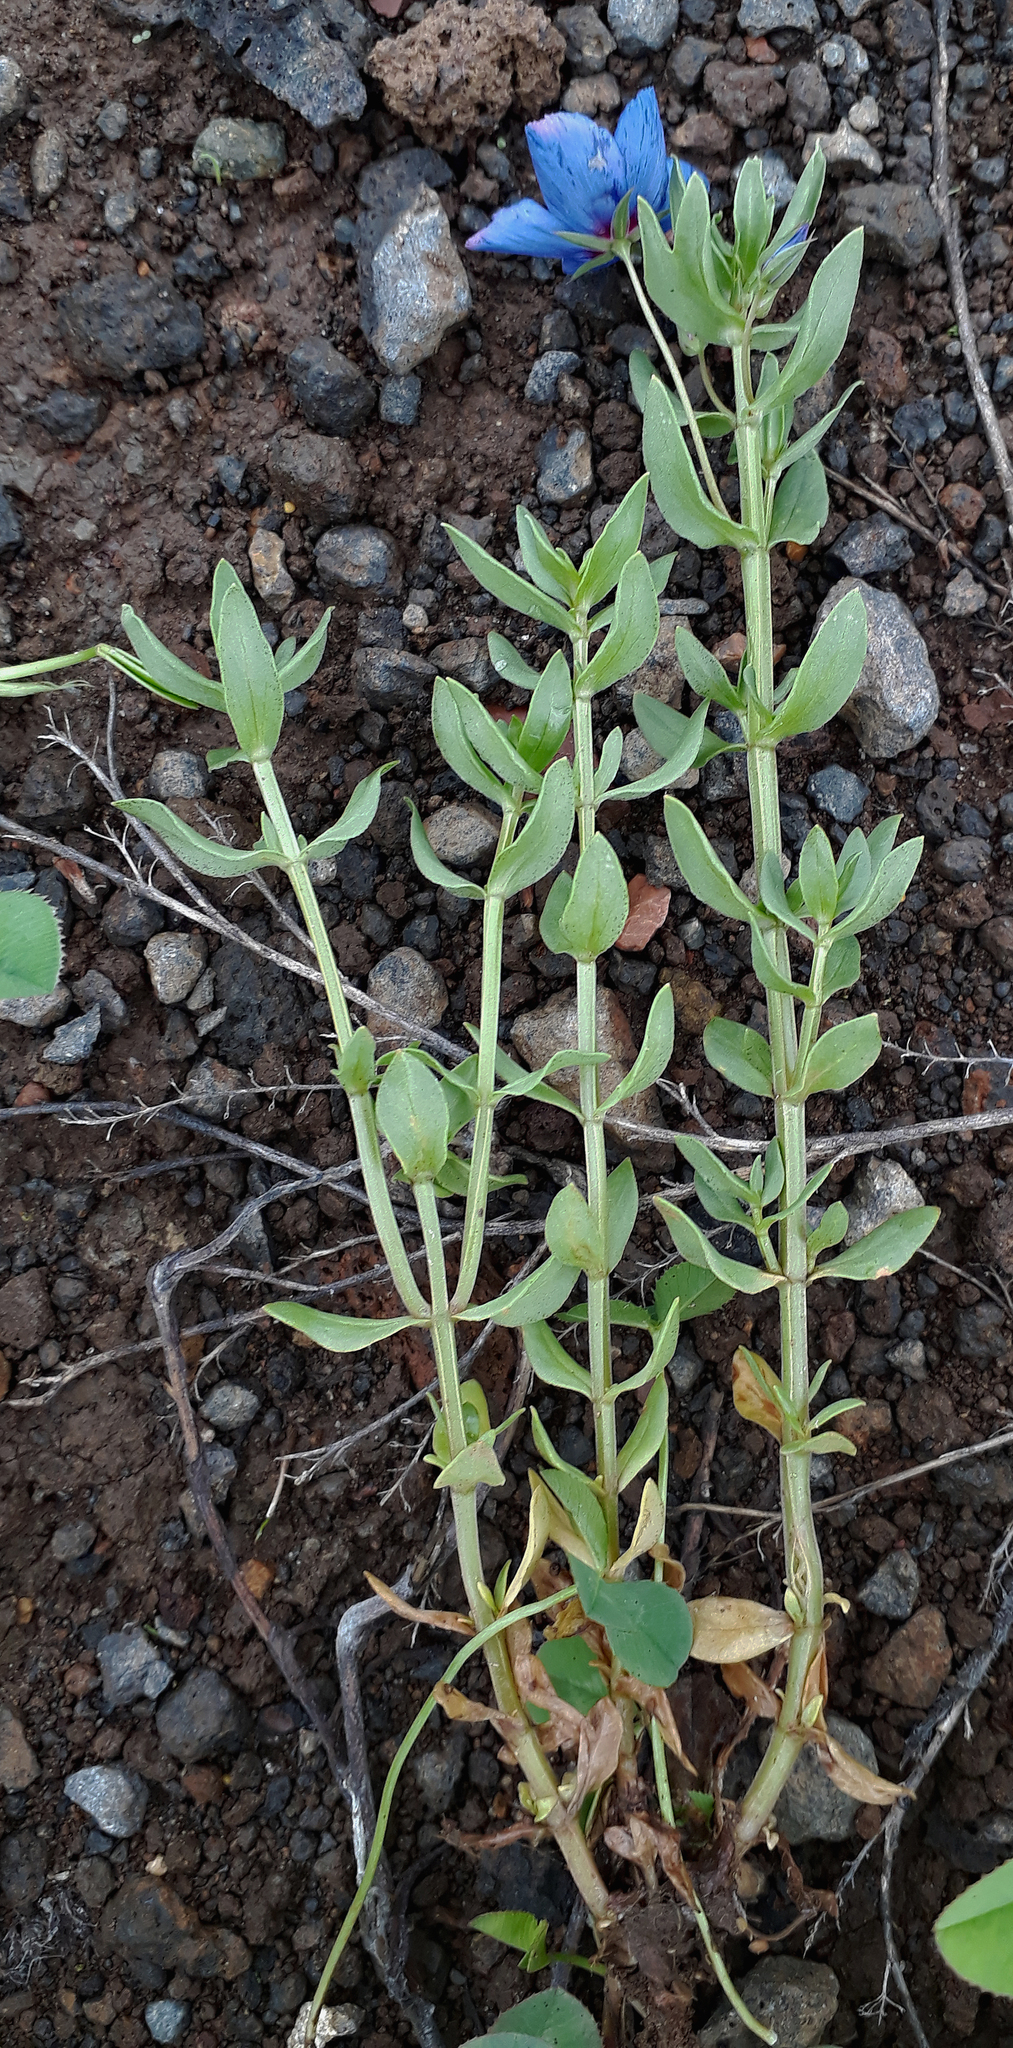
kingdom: Plantae
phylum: Tracheophyta
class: Magnoliopsida
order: Ericales
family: Primulaceae
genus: Lysimachia
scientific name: Lysimachia monelli
